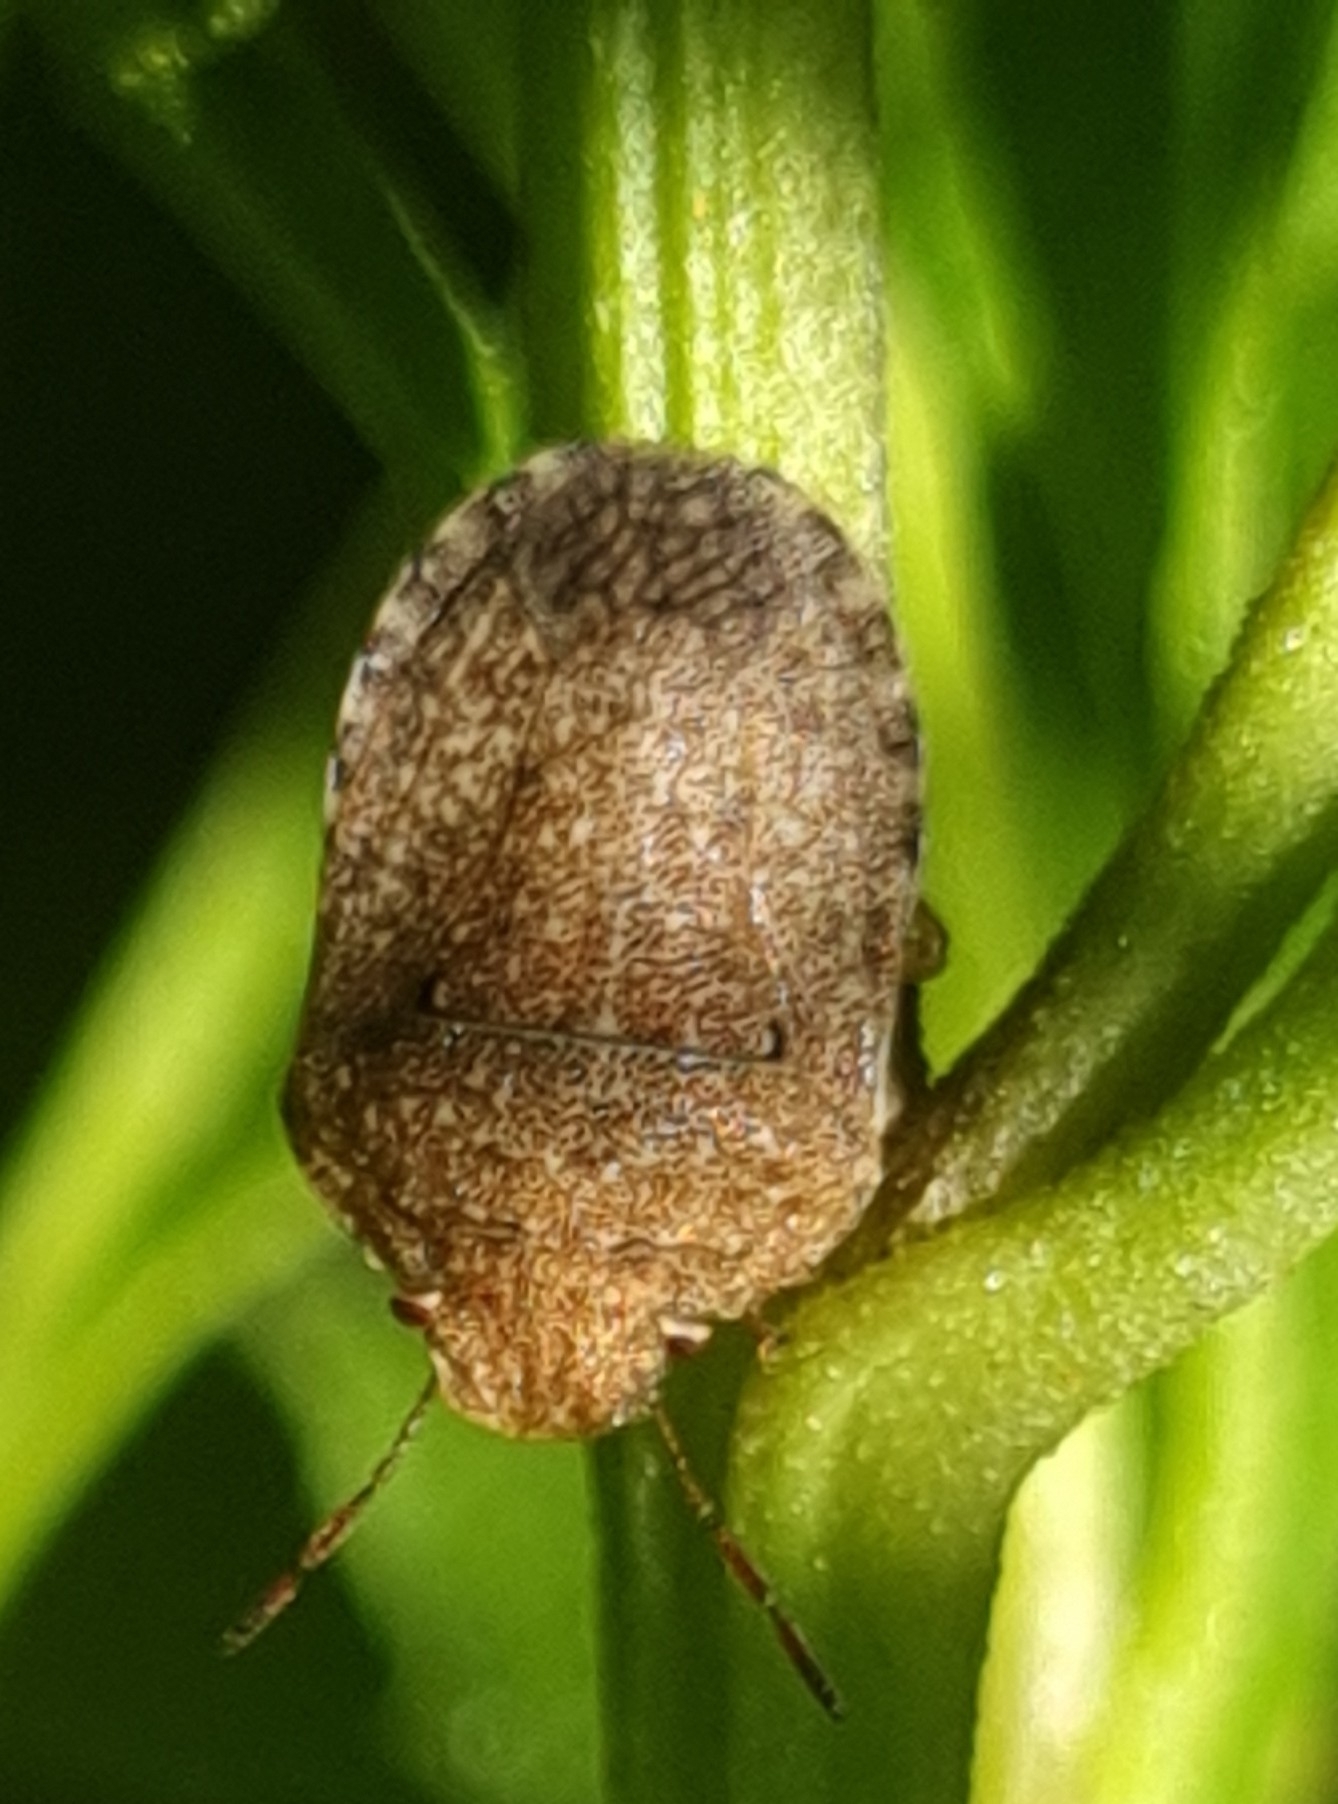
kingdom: Animalia
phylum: Arthropoda
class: Insecta
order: Hemiptera
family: Pentatomidae
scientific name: Pentatomidae
